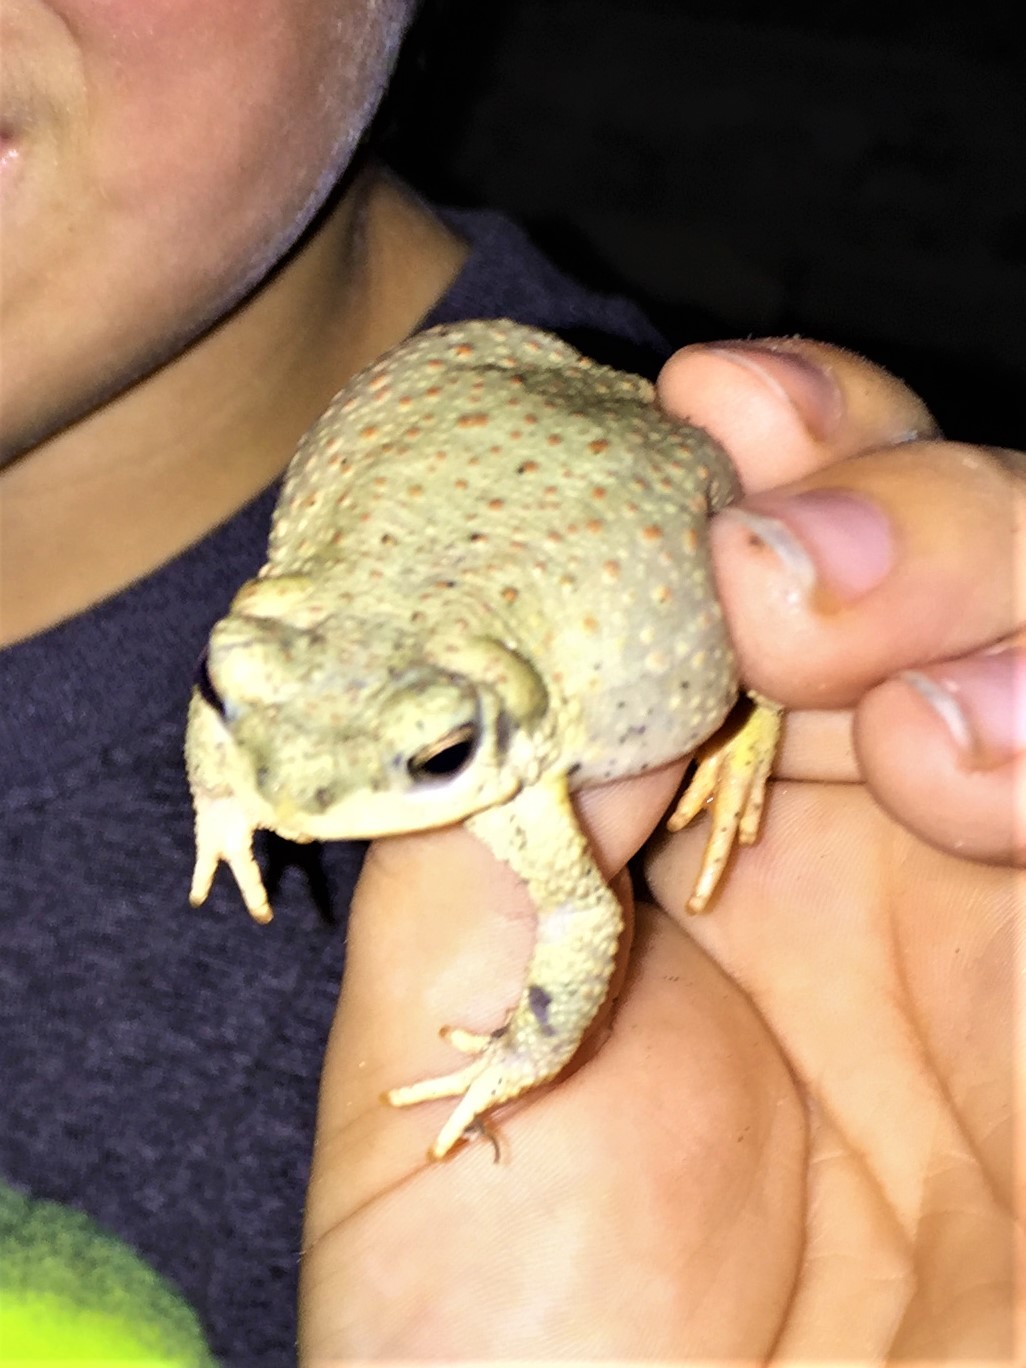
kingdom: Animalia
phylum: Chordata
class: Amphibia
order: Anura
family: Bufonidae
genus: Anaxyrus
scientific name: Anaxyrus punctatus
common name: Red-spotted toad
